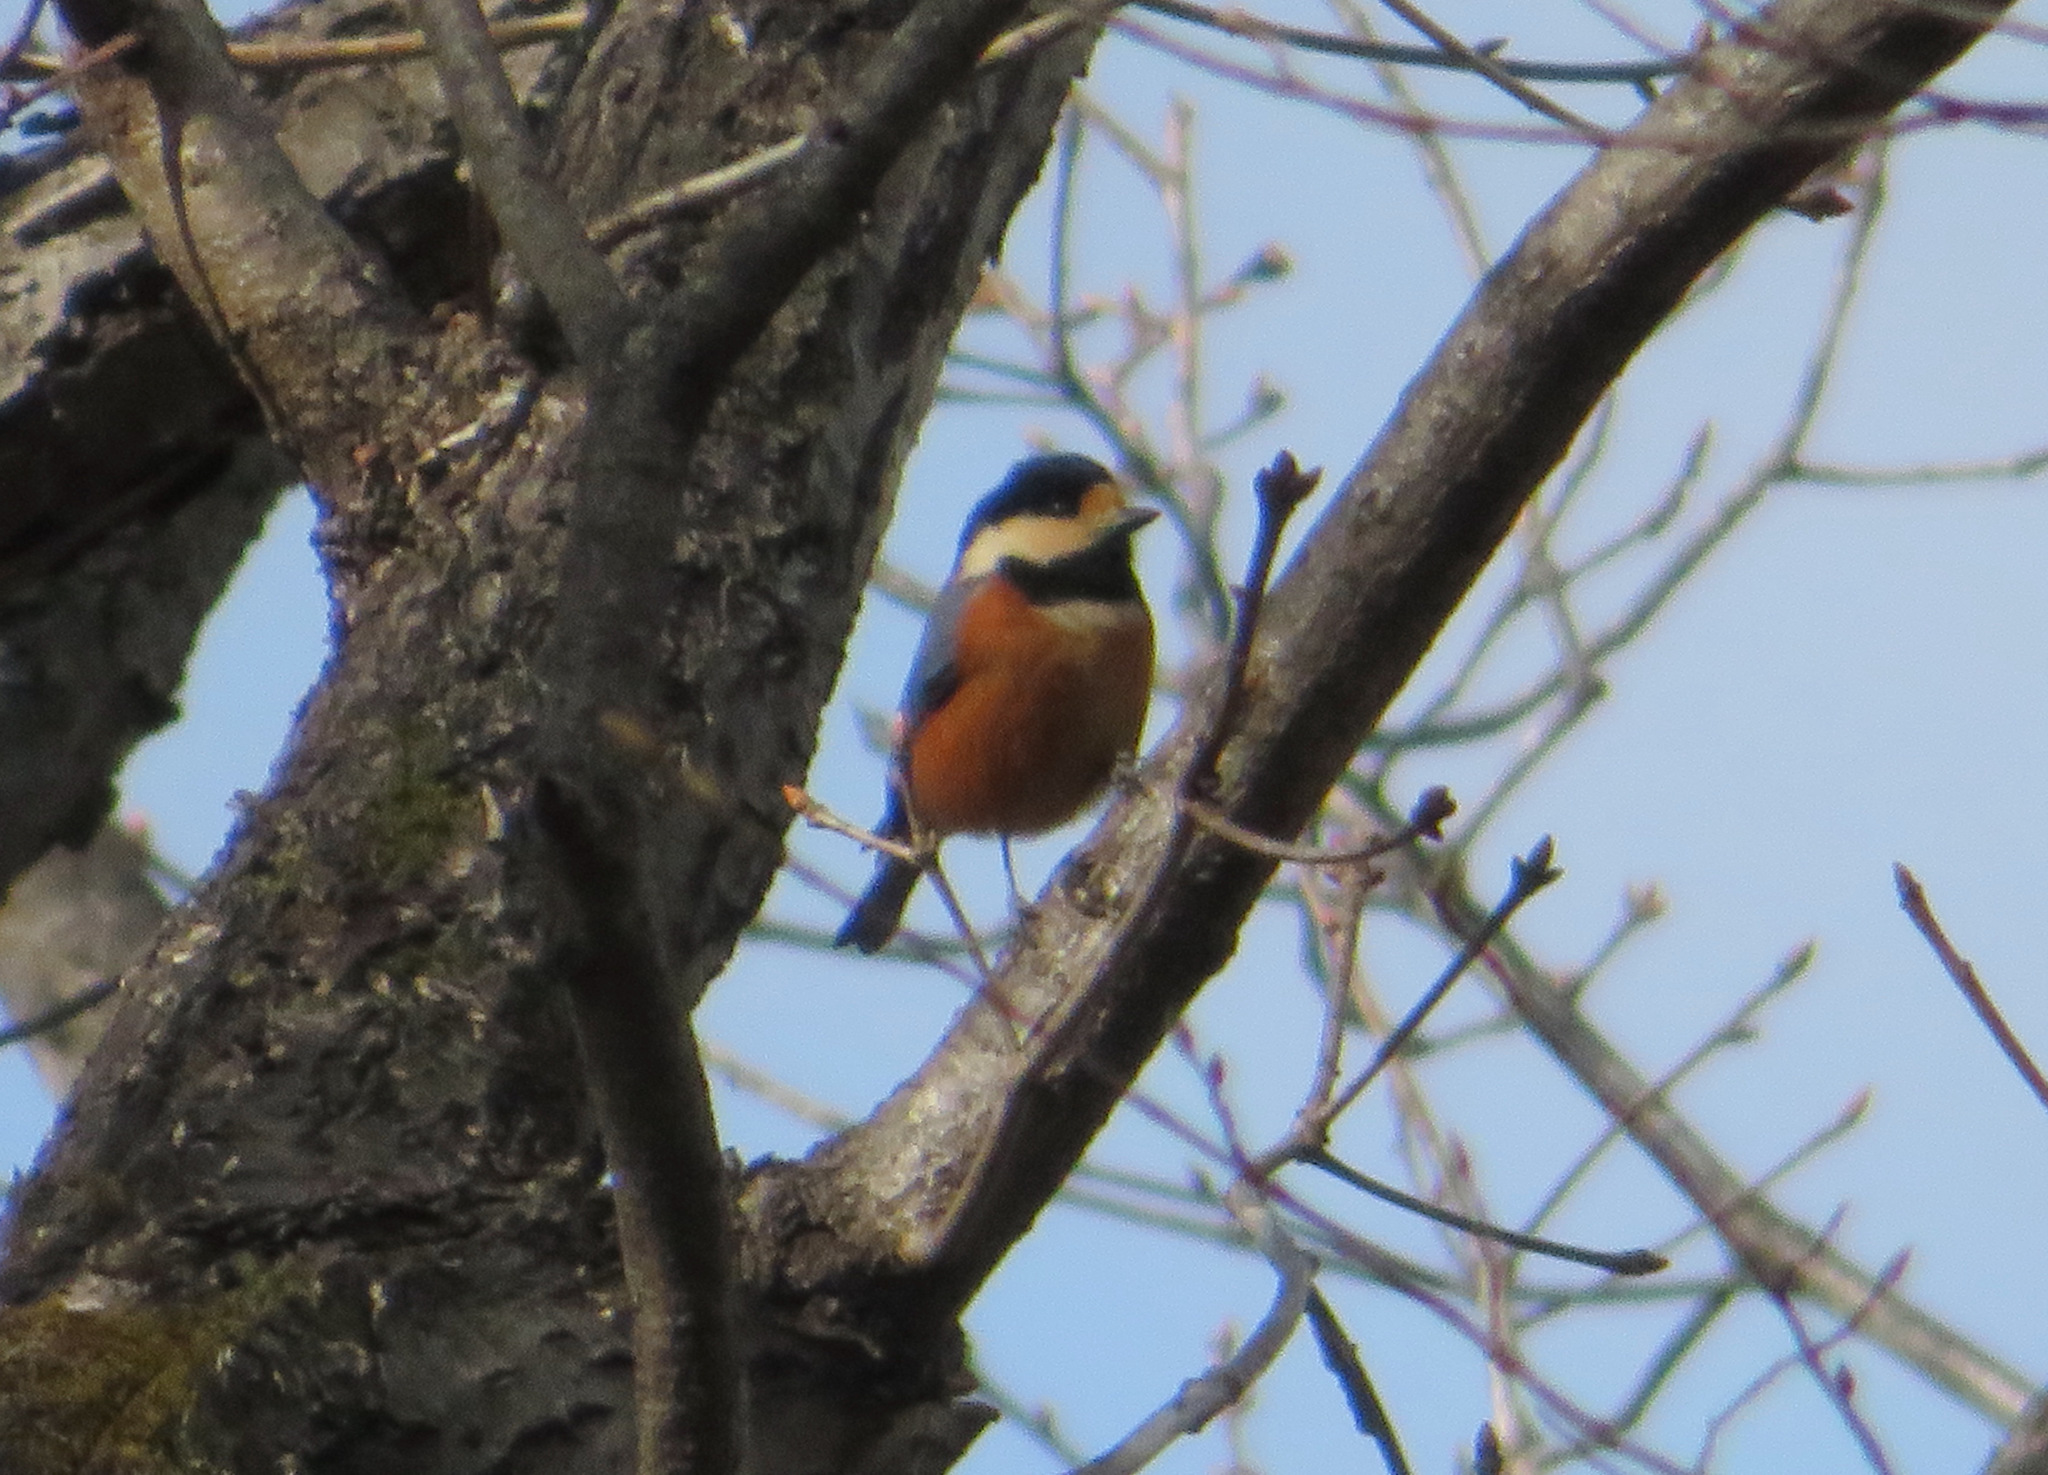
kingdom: Animalia
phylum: Chordata
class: Aves
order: Passeriformes
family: Paridae
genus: Poecile
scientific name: Poecile varius
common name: Varied tit
